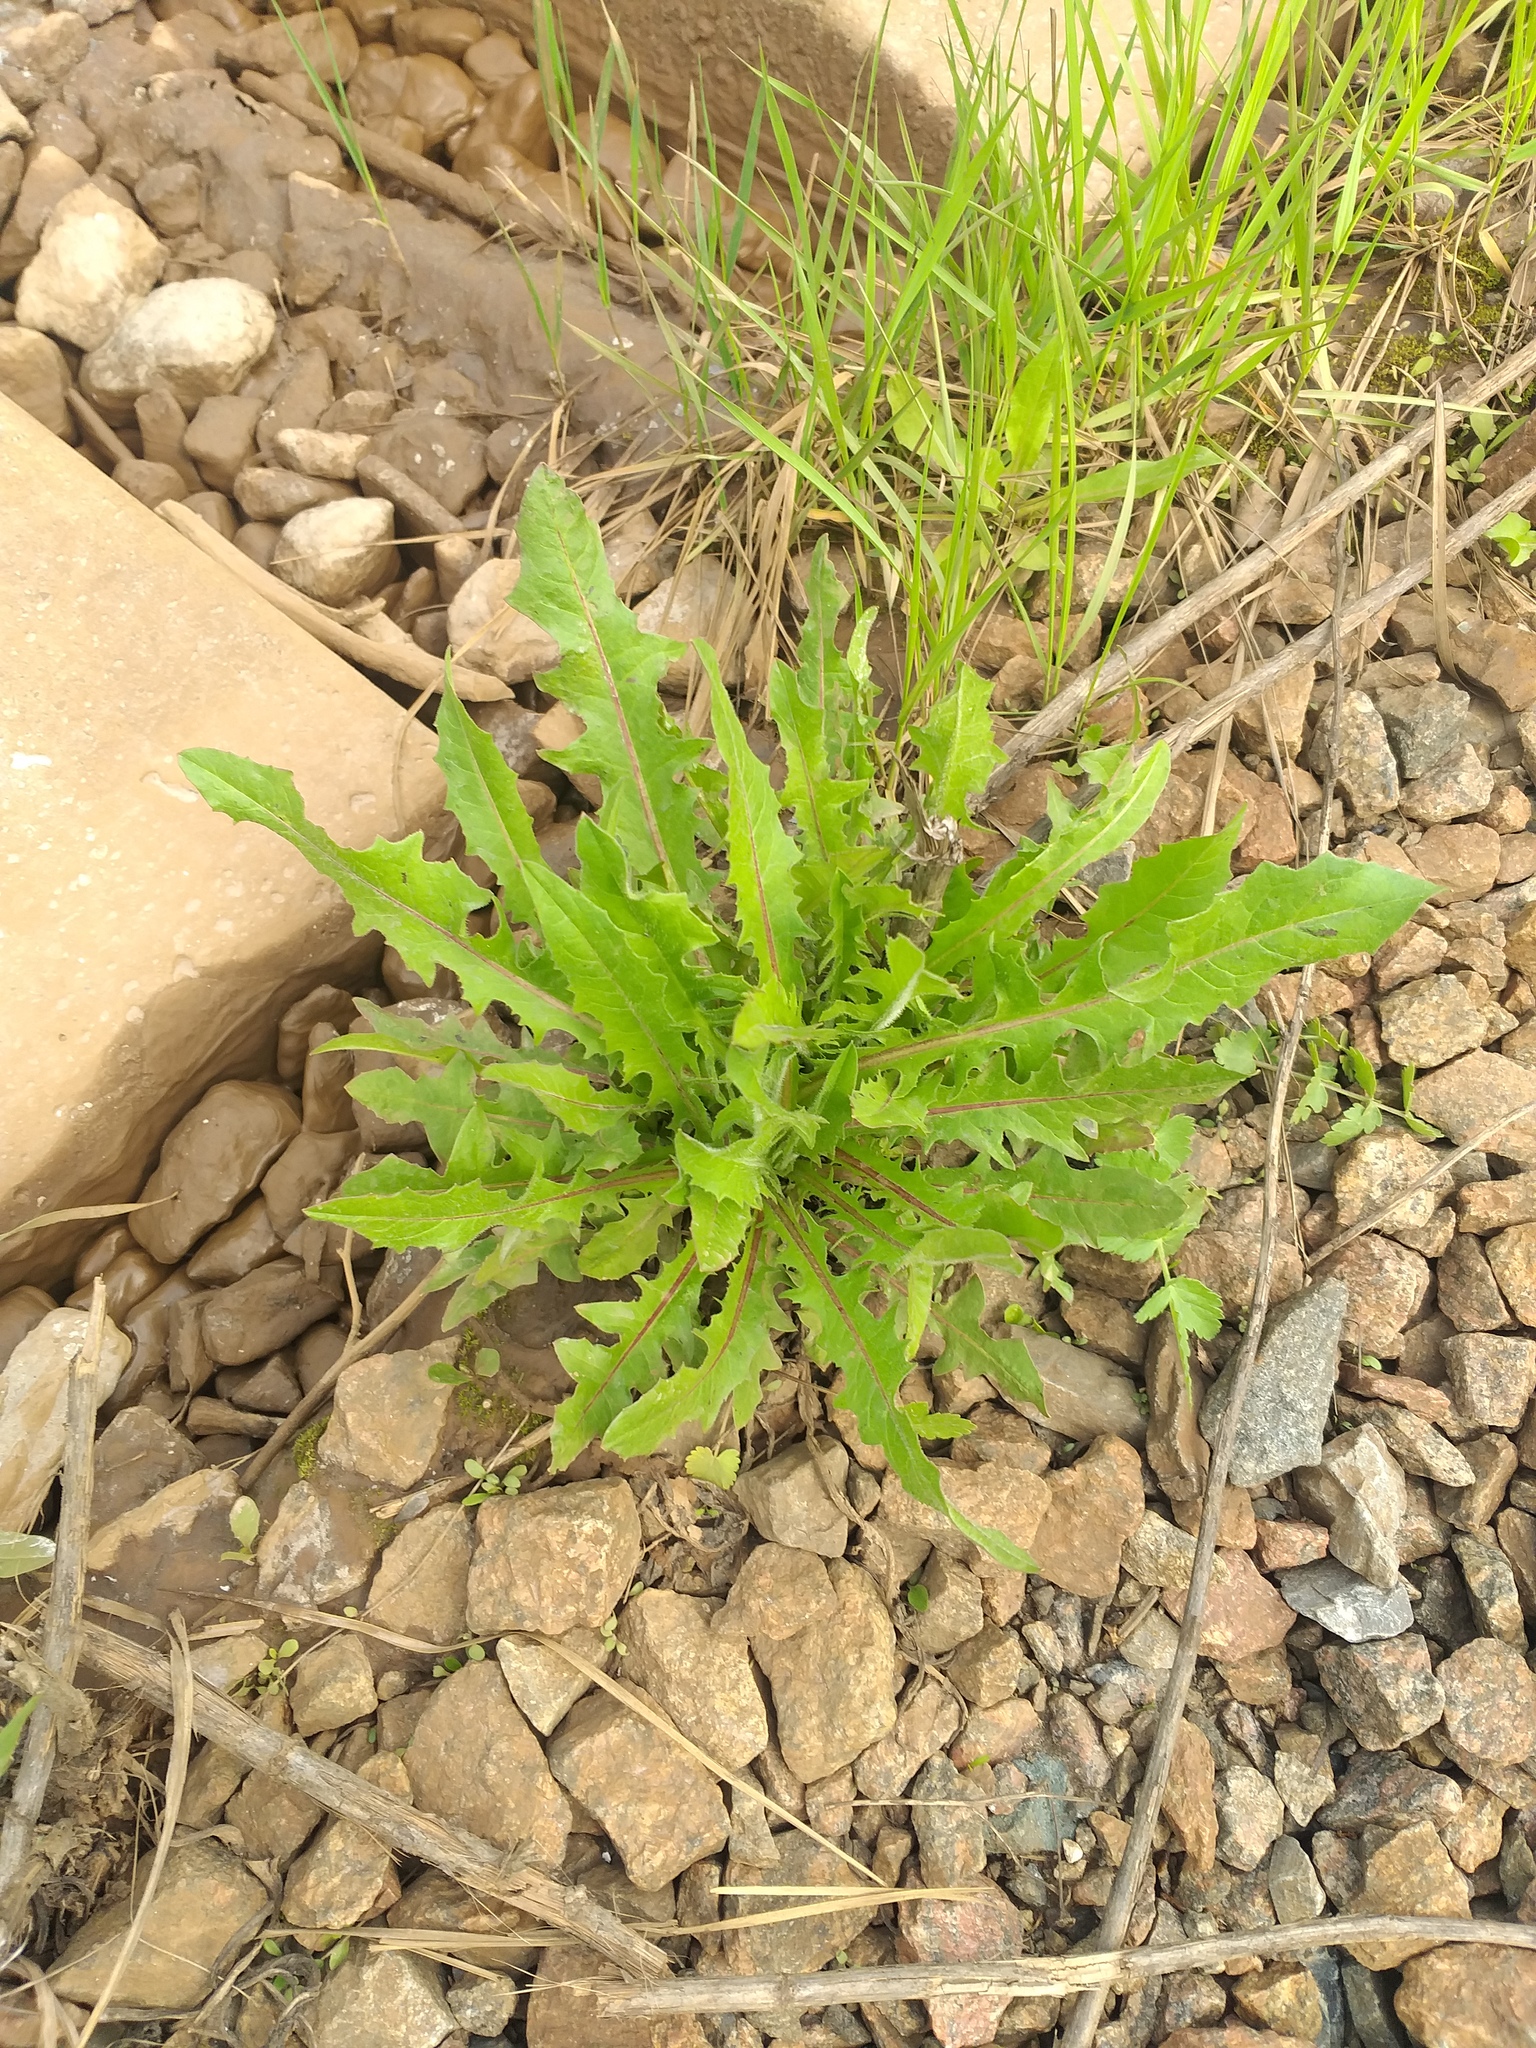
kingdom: Plantae
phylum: Tracheophyta
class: Magnoliopsida
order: Asterales
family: Asteraceae
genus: Cichorium
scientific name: Cichorium intybus
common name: Chicory
